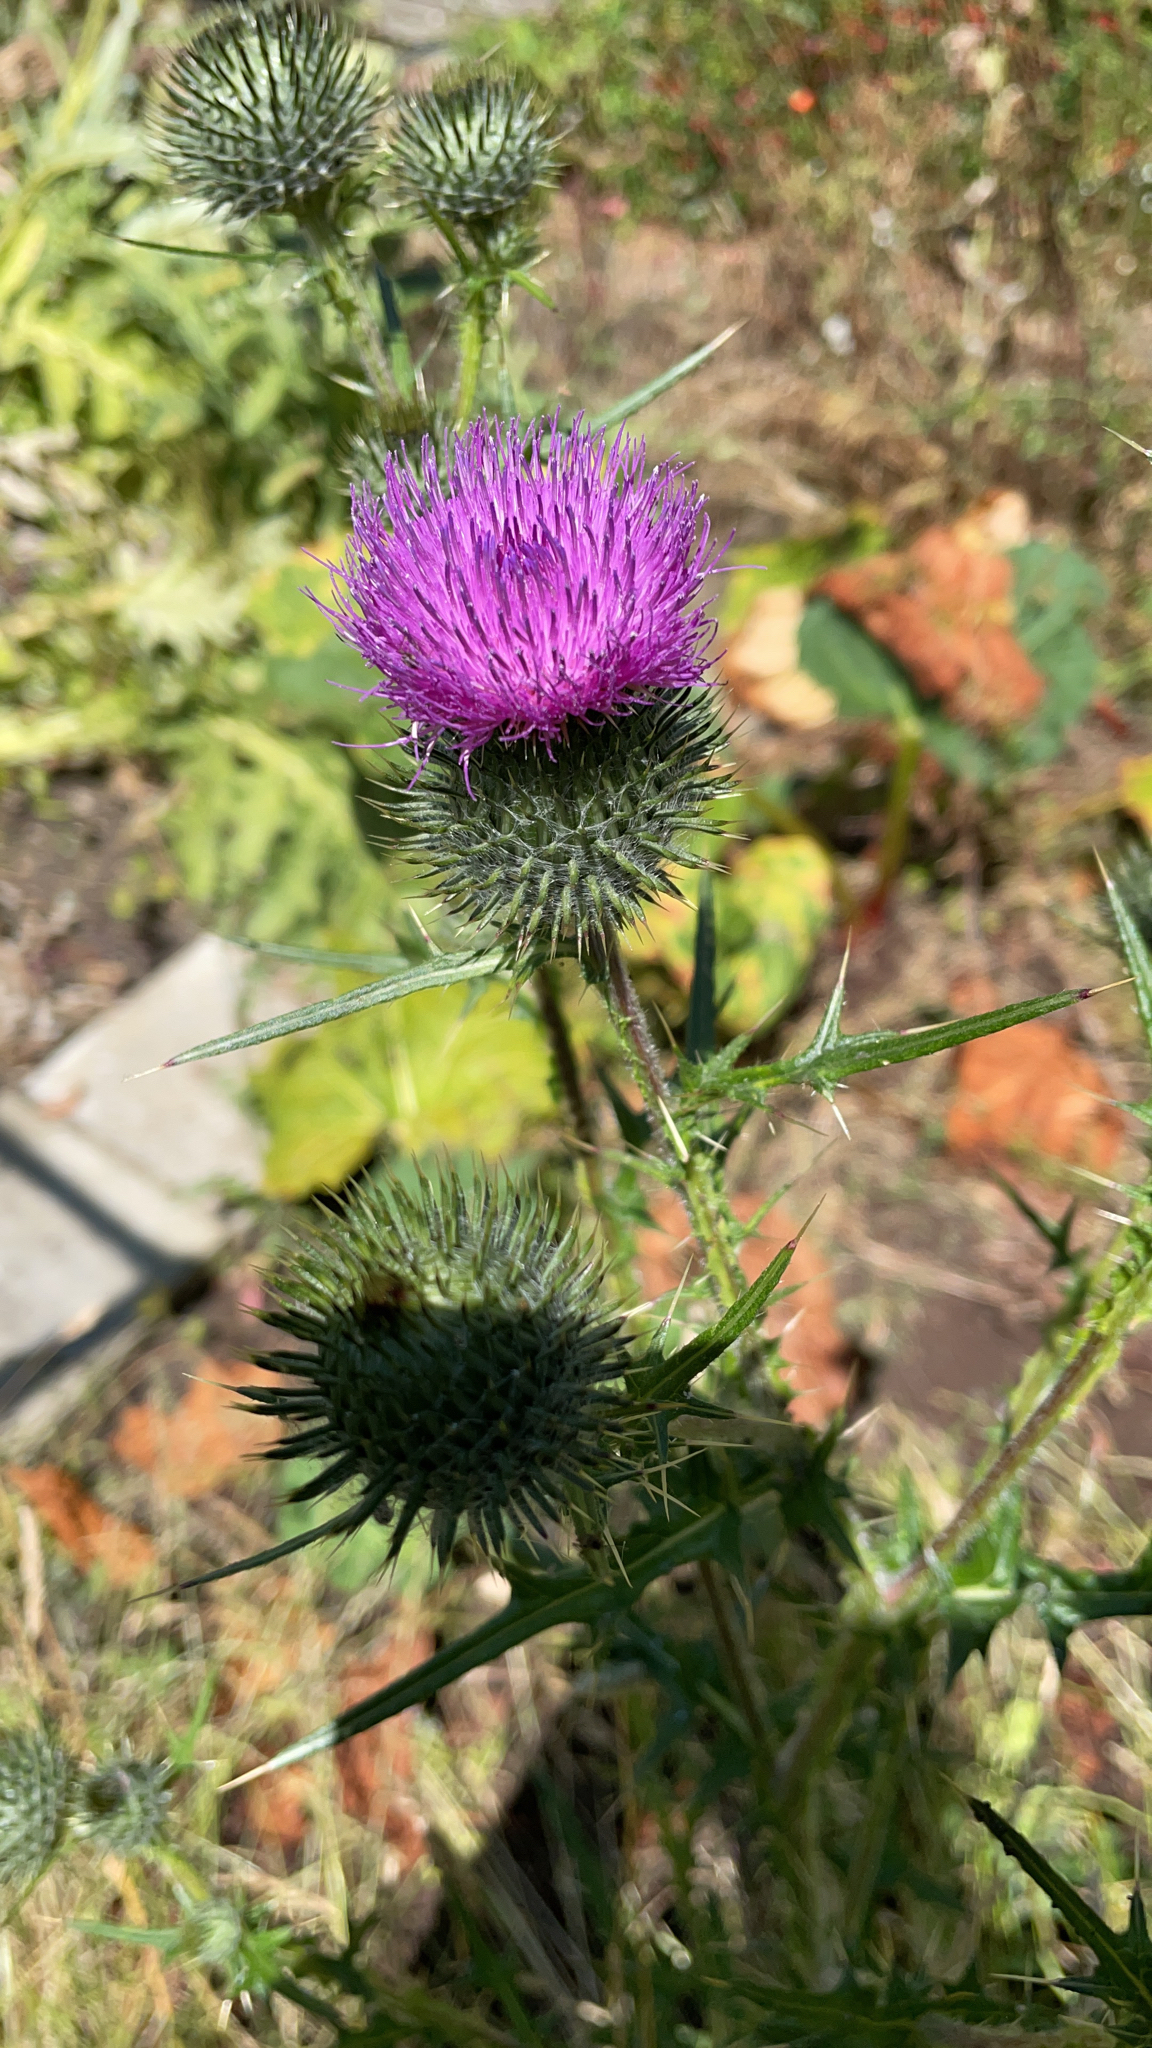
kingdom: Plantae
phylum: Tracheophyta
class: Magnoliopsida
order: Asterales
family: Asteraceae
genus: Cirsium
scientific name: Cirsium vulgare
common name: Bull thistle
